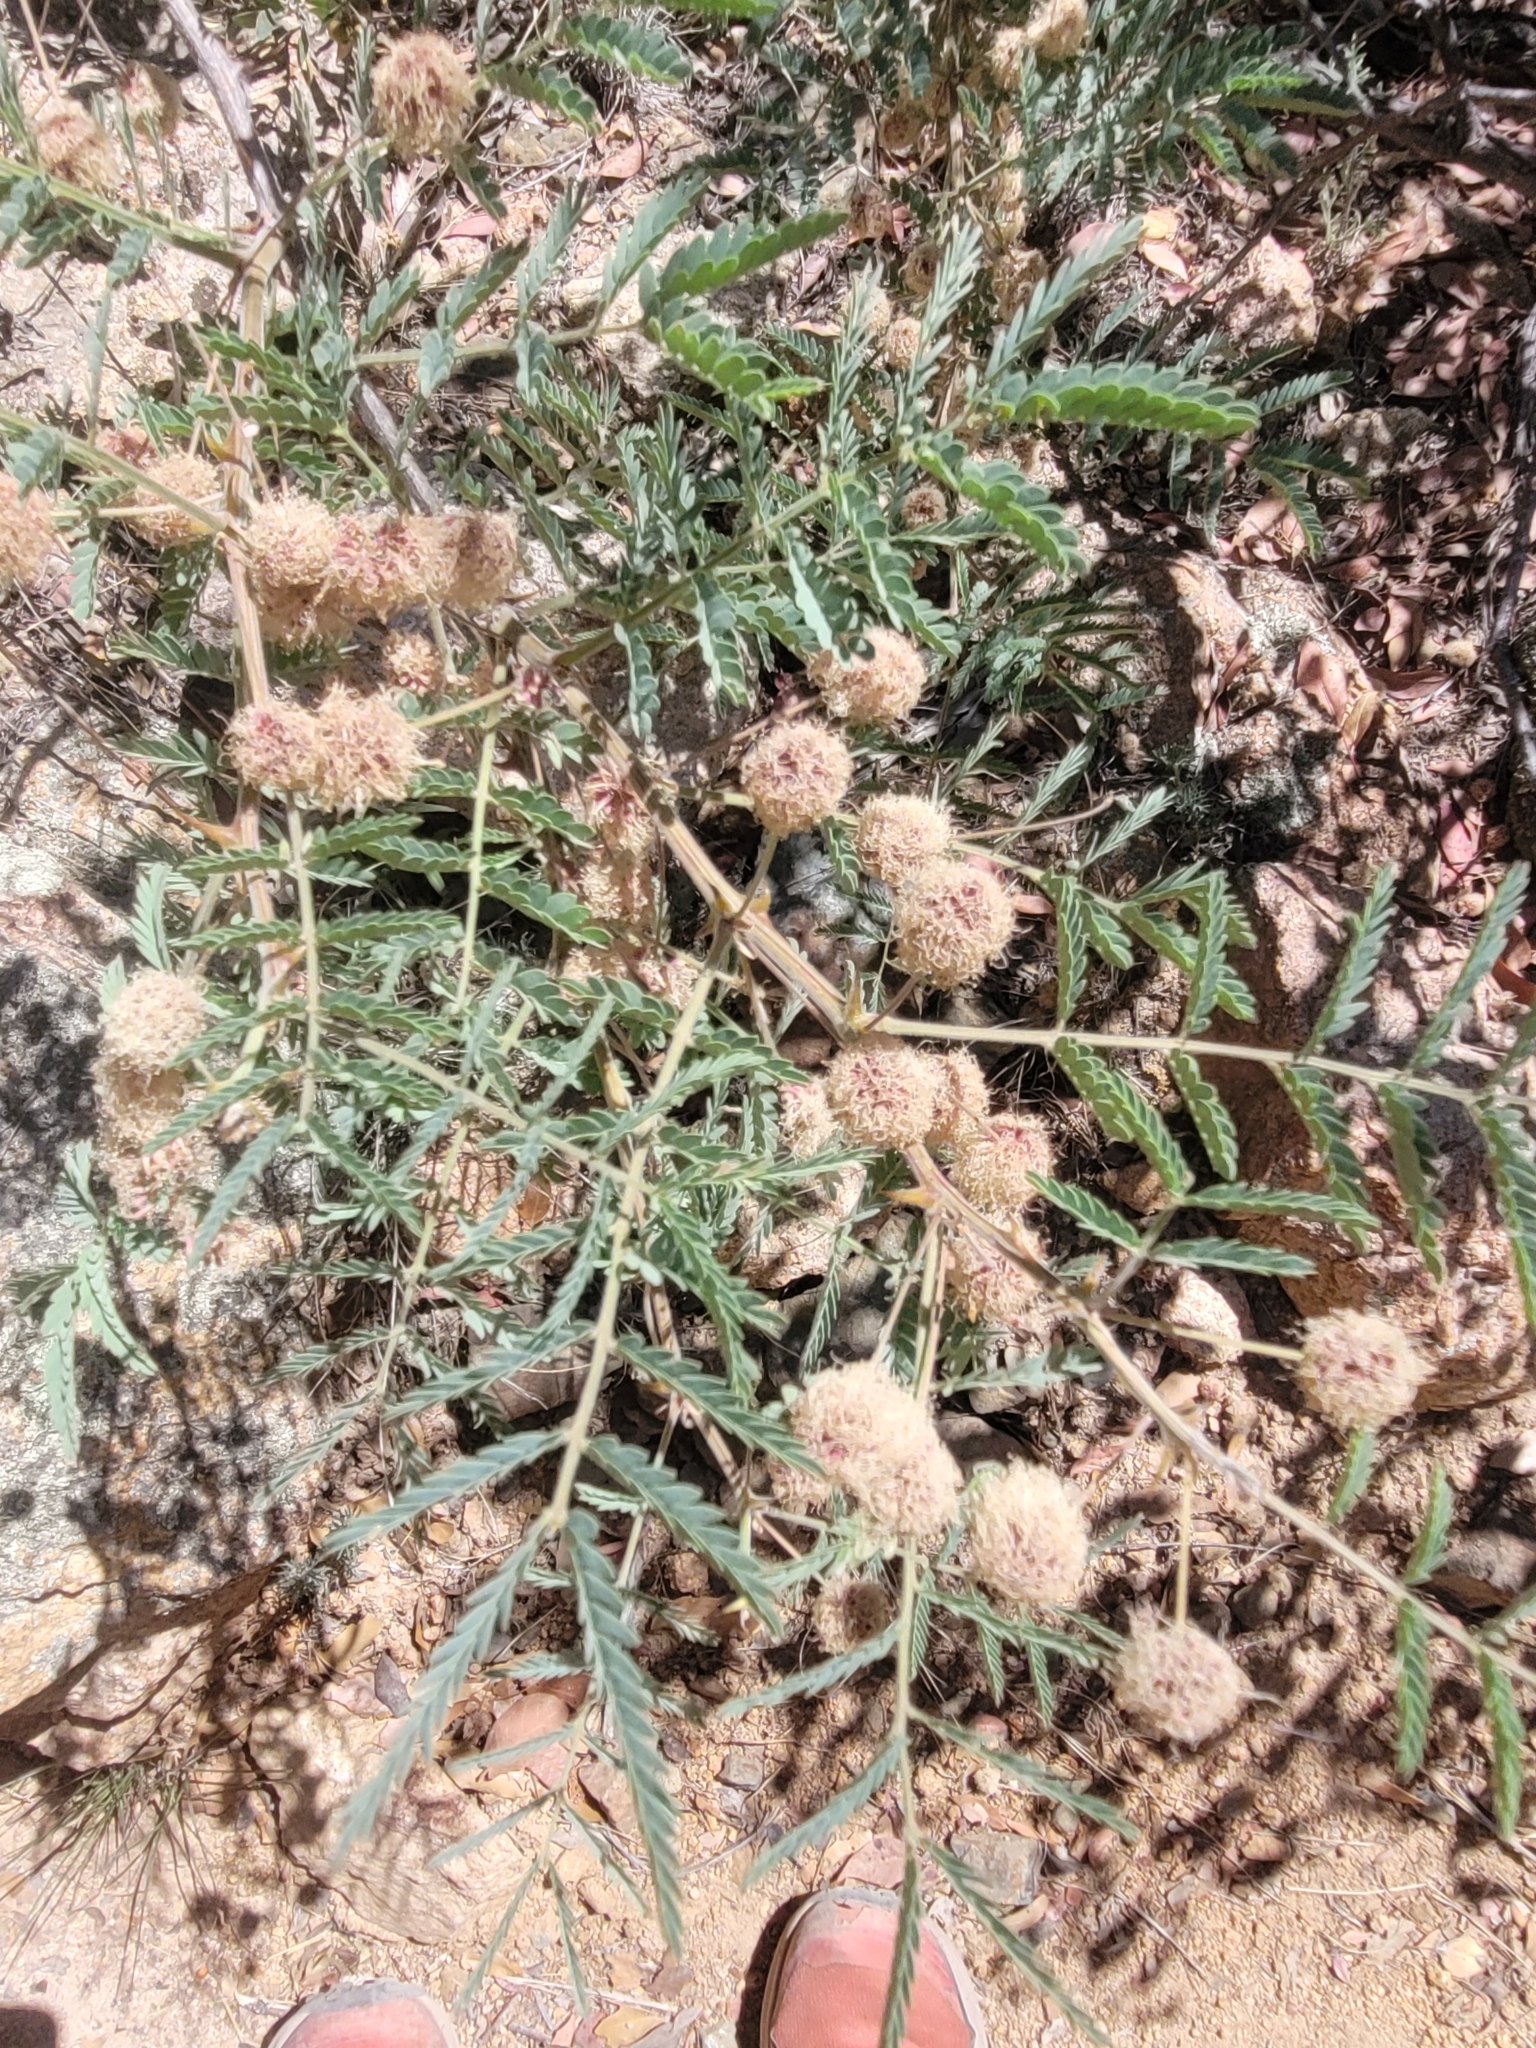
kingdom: Plantae
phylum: Tracheophyta
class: Magnoliopsida
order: Fabales
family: Fabaceae
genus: Mimosa
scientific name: Mimosa grahamii
